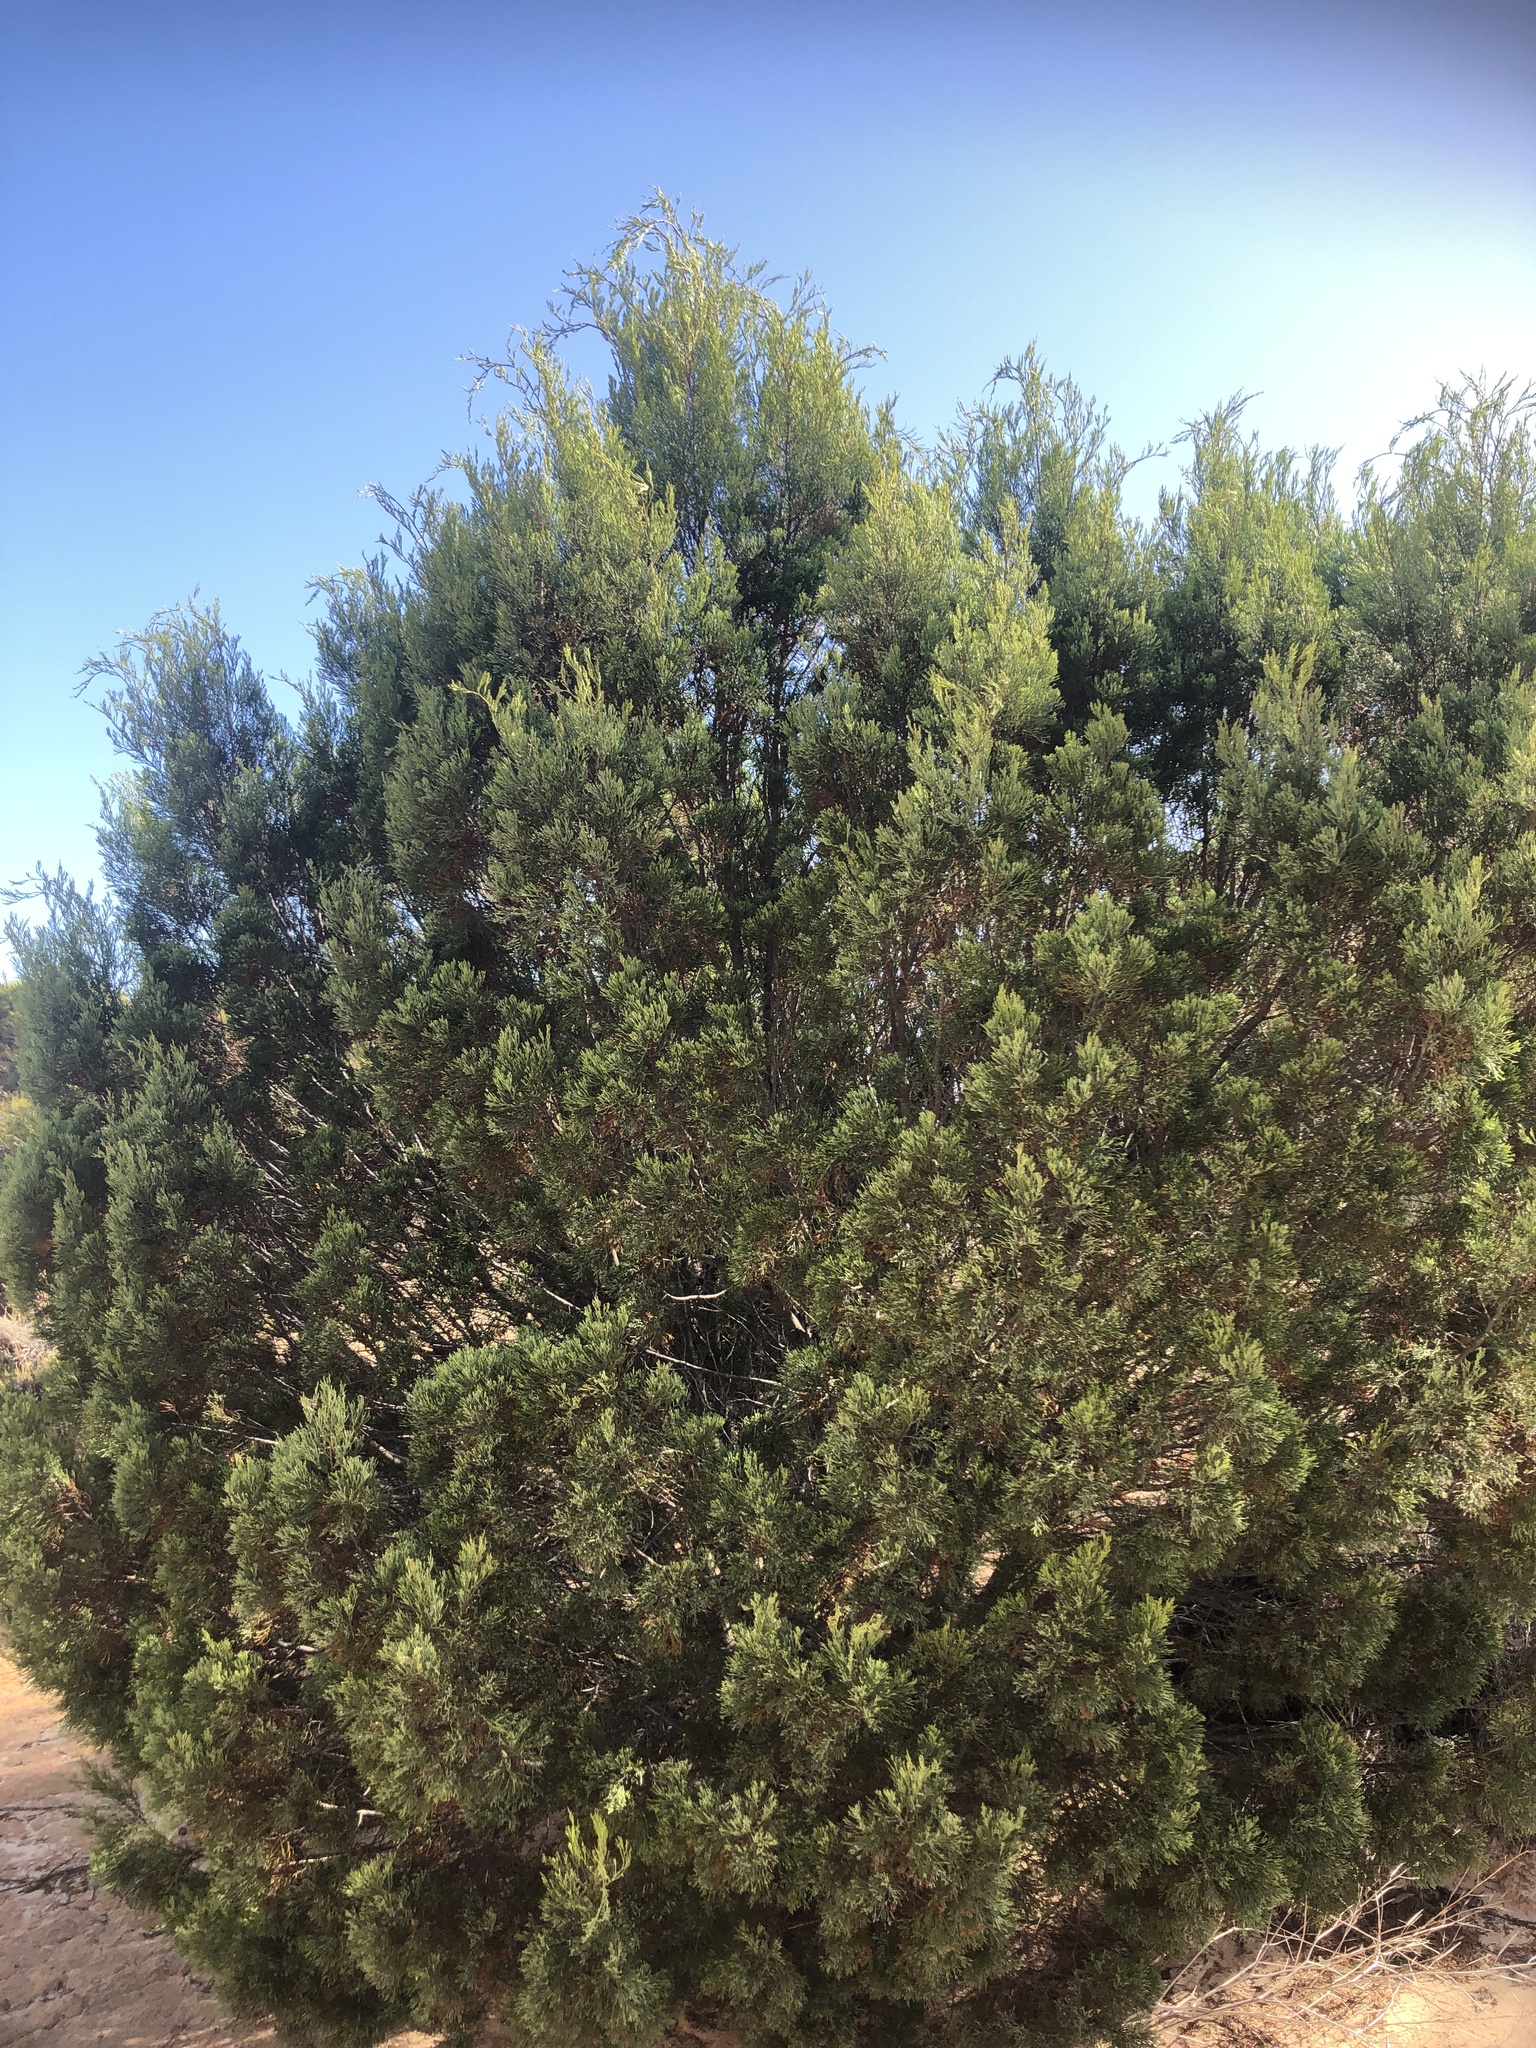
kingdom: Plantae
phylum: Tracheophyta
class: Pinopsida
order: Pinales
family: Cupressaceae
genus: Callitris
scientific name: Callitris verrucosa
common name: Scrub cypress-pine
